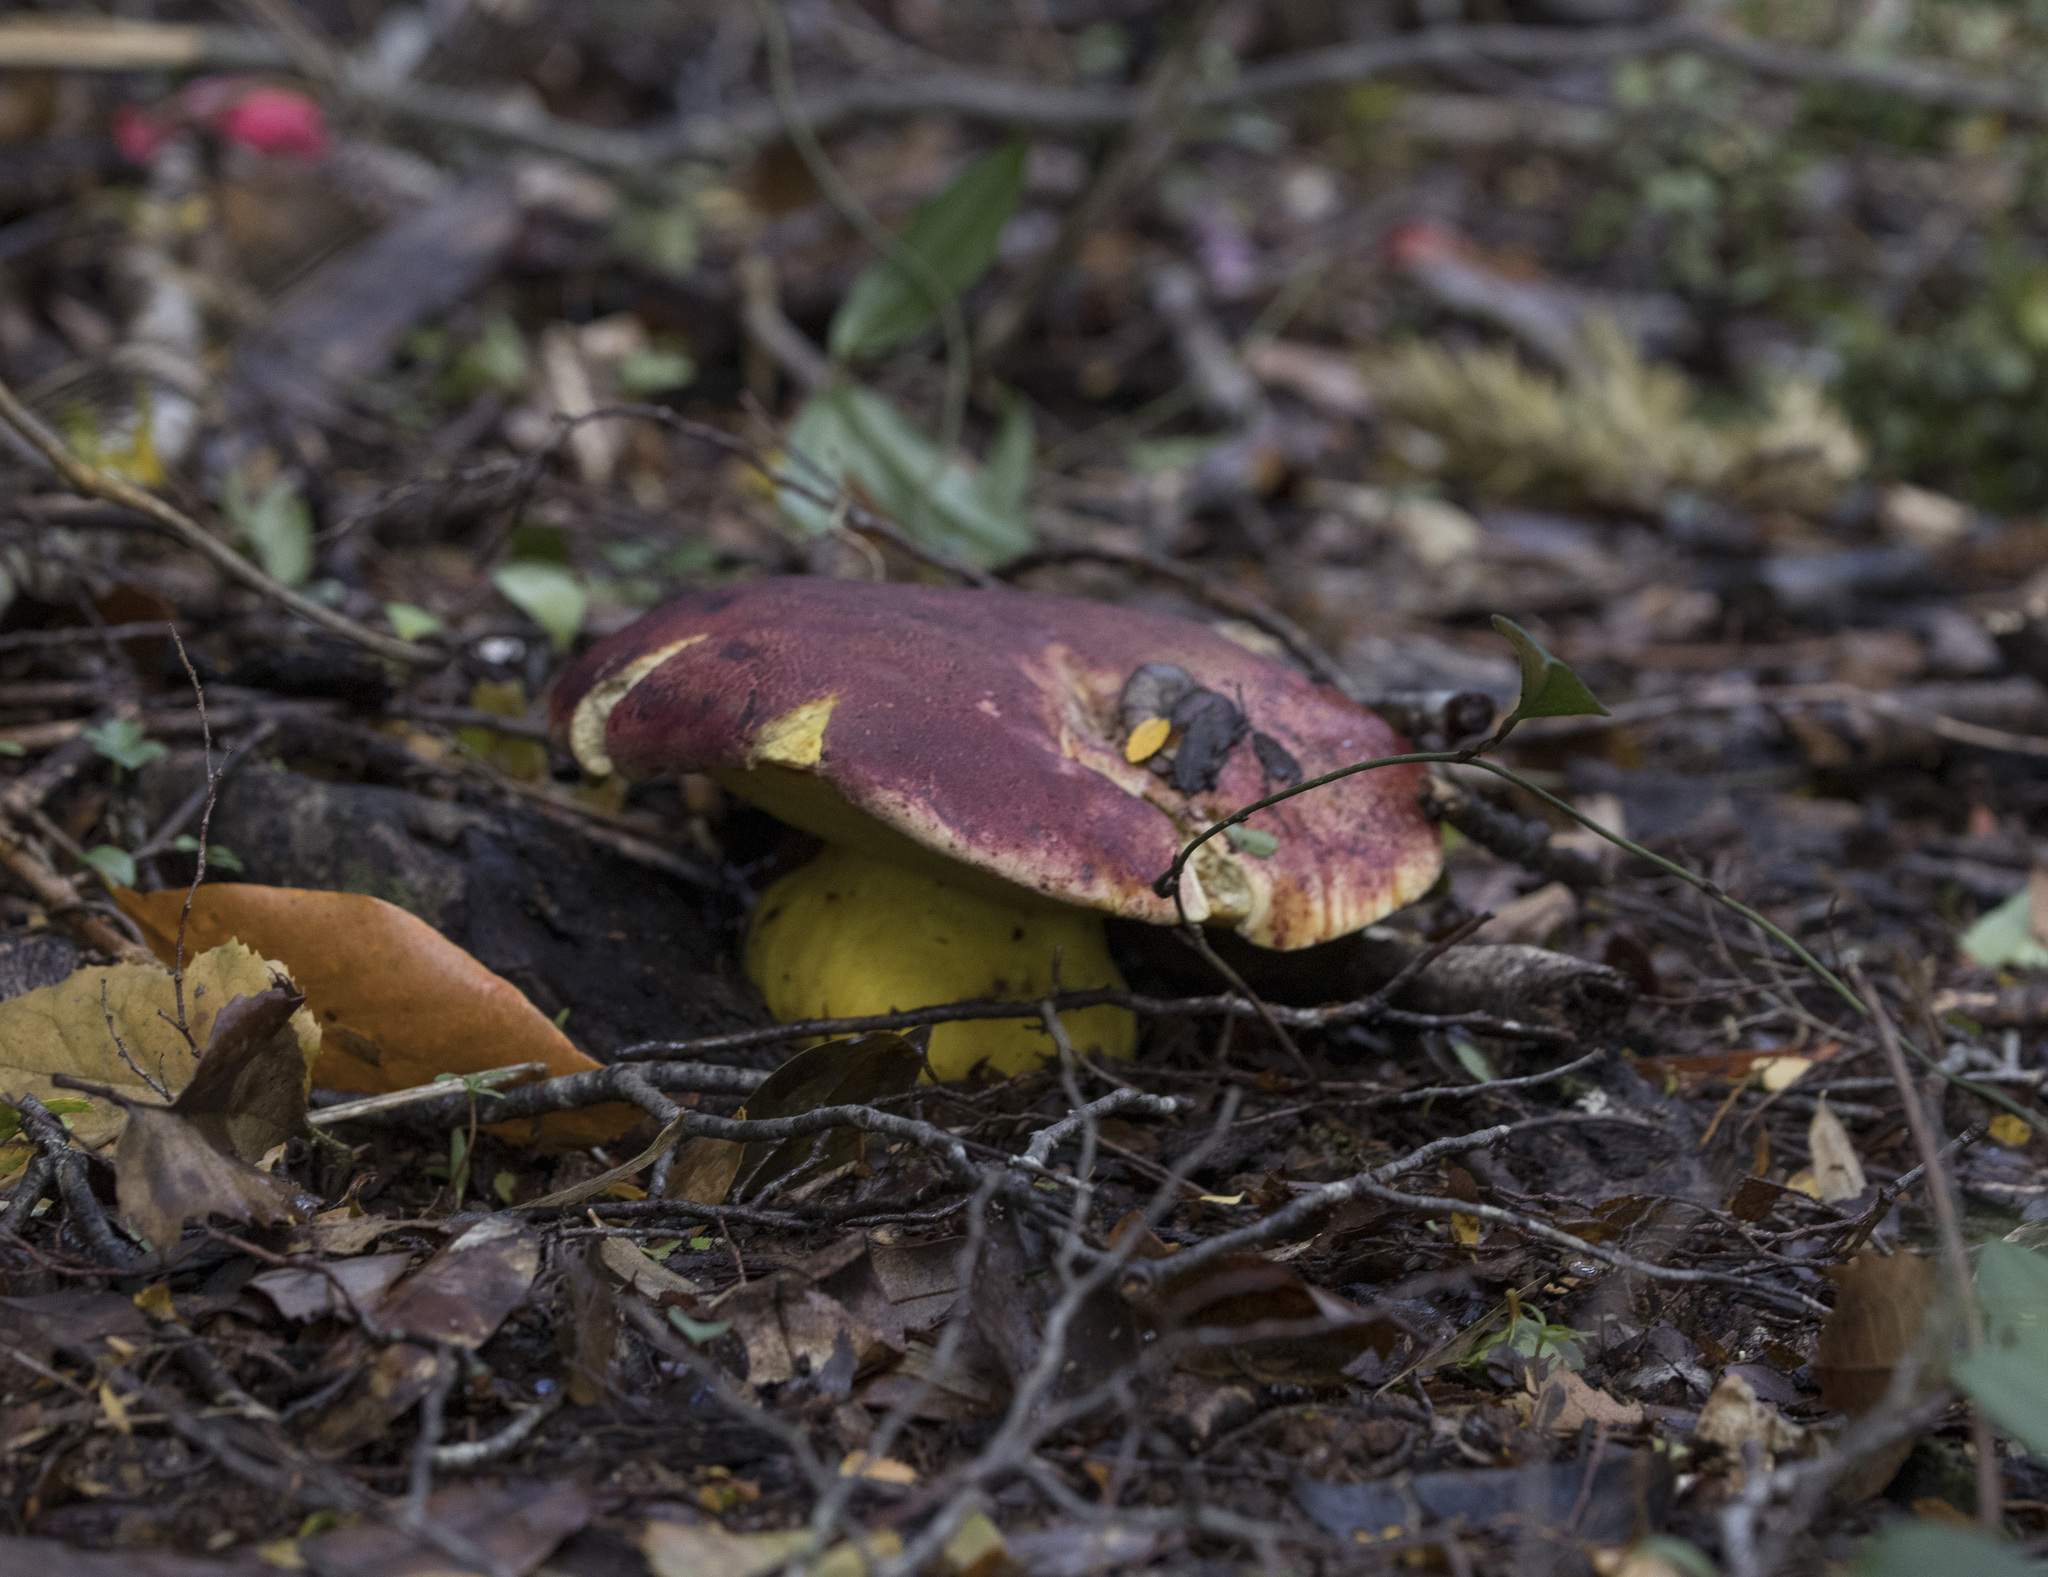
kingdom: Fungi
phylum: Basidiomycota
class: Agaricomycetes
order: Boletales
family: Boletaceae
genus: Butyriboletus
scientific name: Butyriboletus loyo
